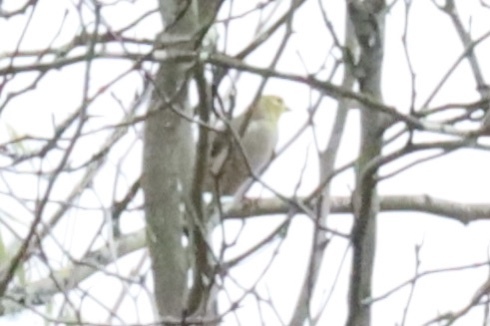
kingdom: Animalia
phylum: Chordata
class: Aves
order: Passeriformes
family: Fringillidae
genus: Spinus
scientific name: Spinus tristis
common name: American goldfinch
